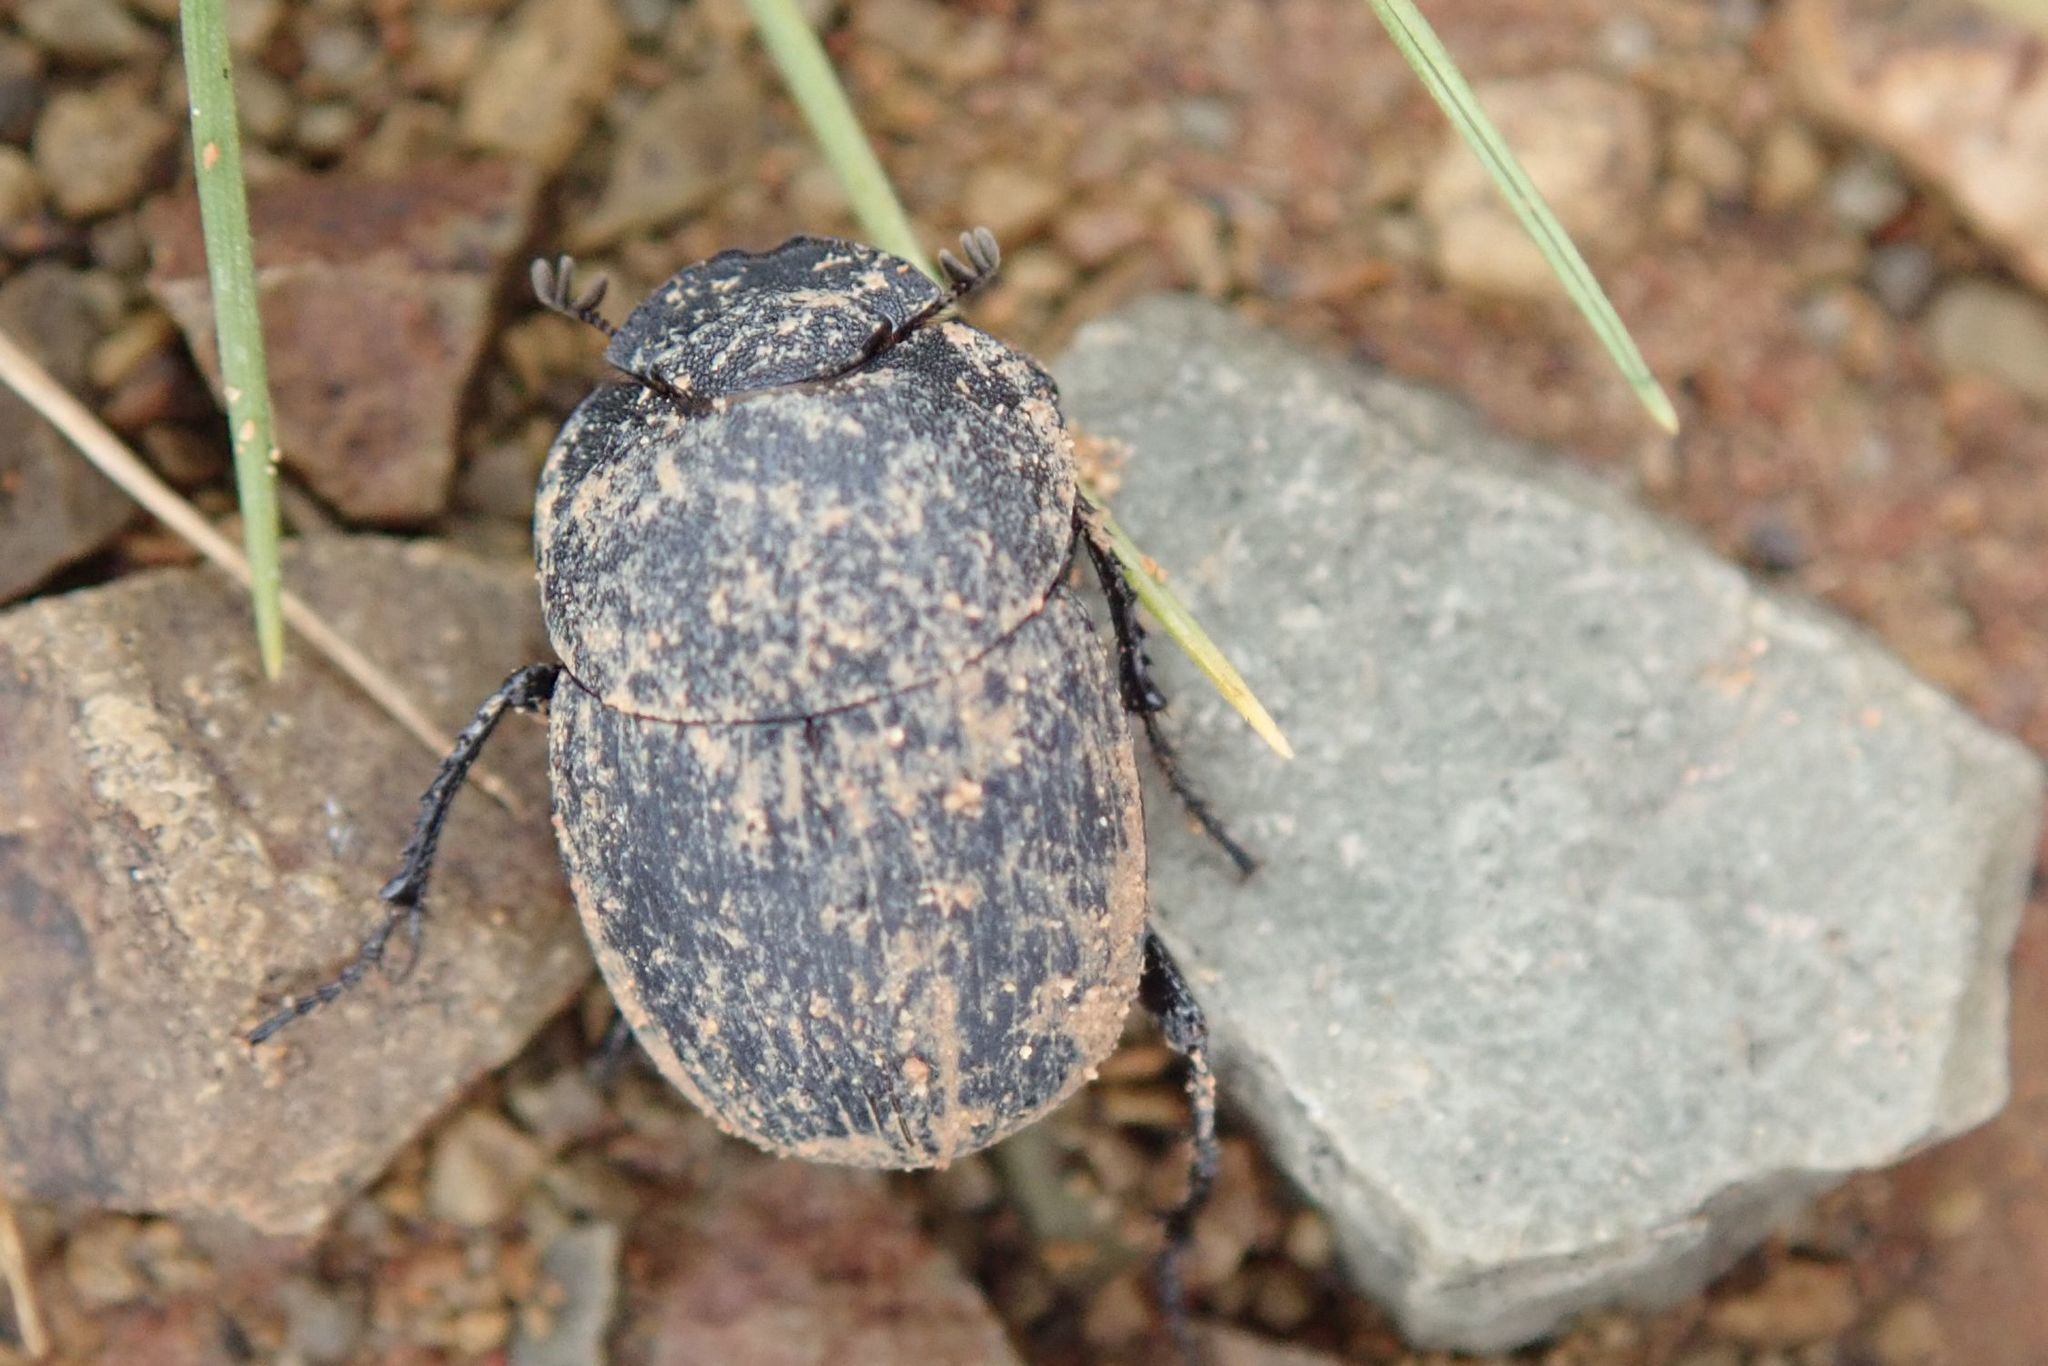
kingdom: Animalia
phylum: Arthropoda
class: Insecta
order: Coleoptera
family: Scarabaeidae
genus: Epirinus
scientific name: Epirinus striatus
